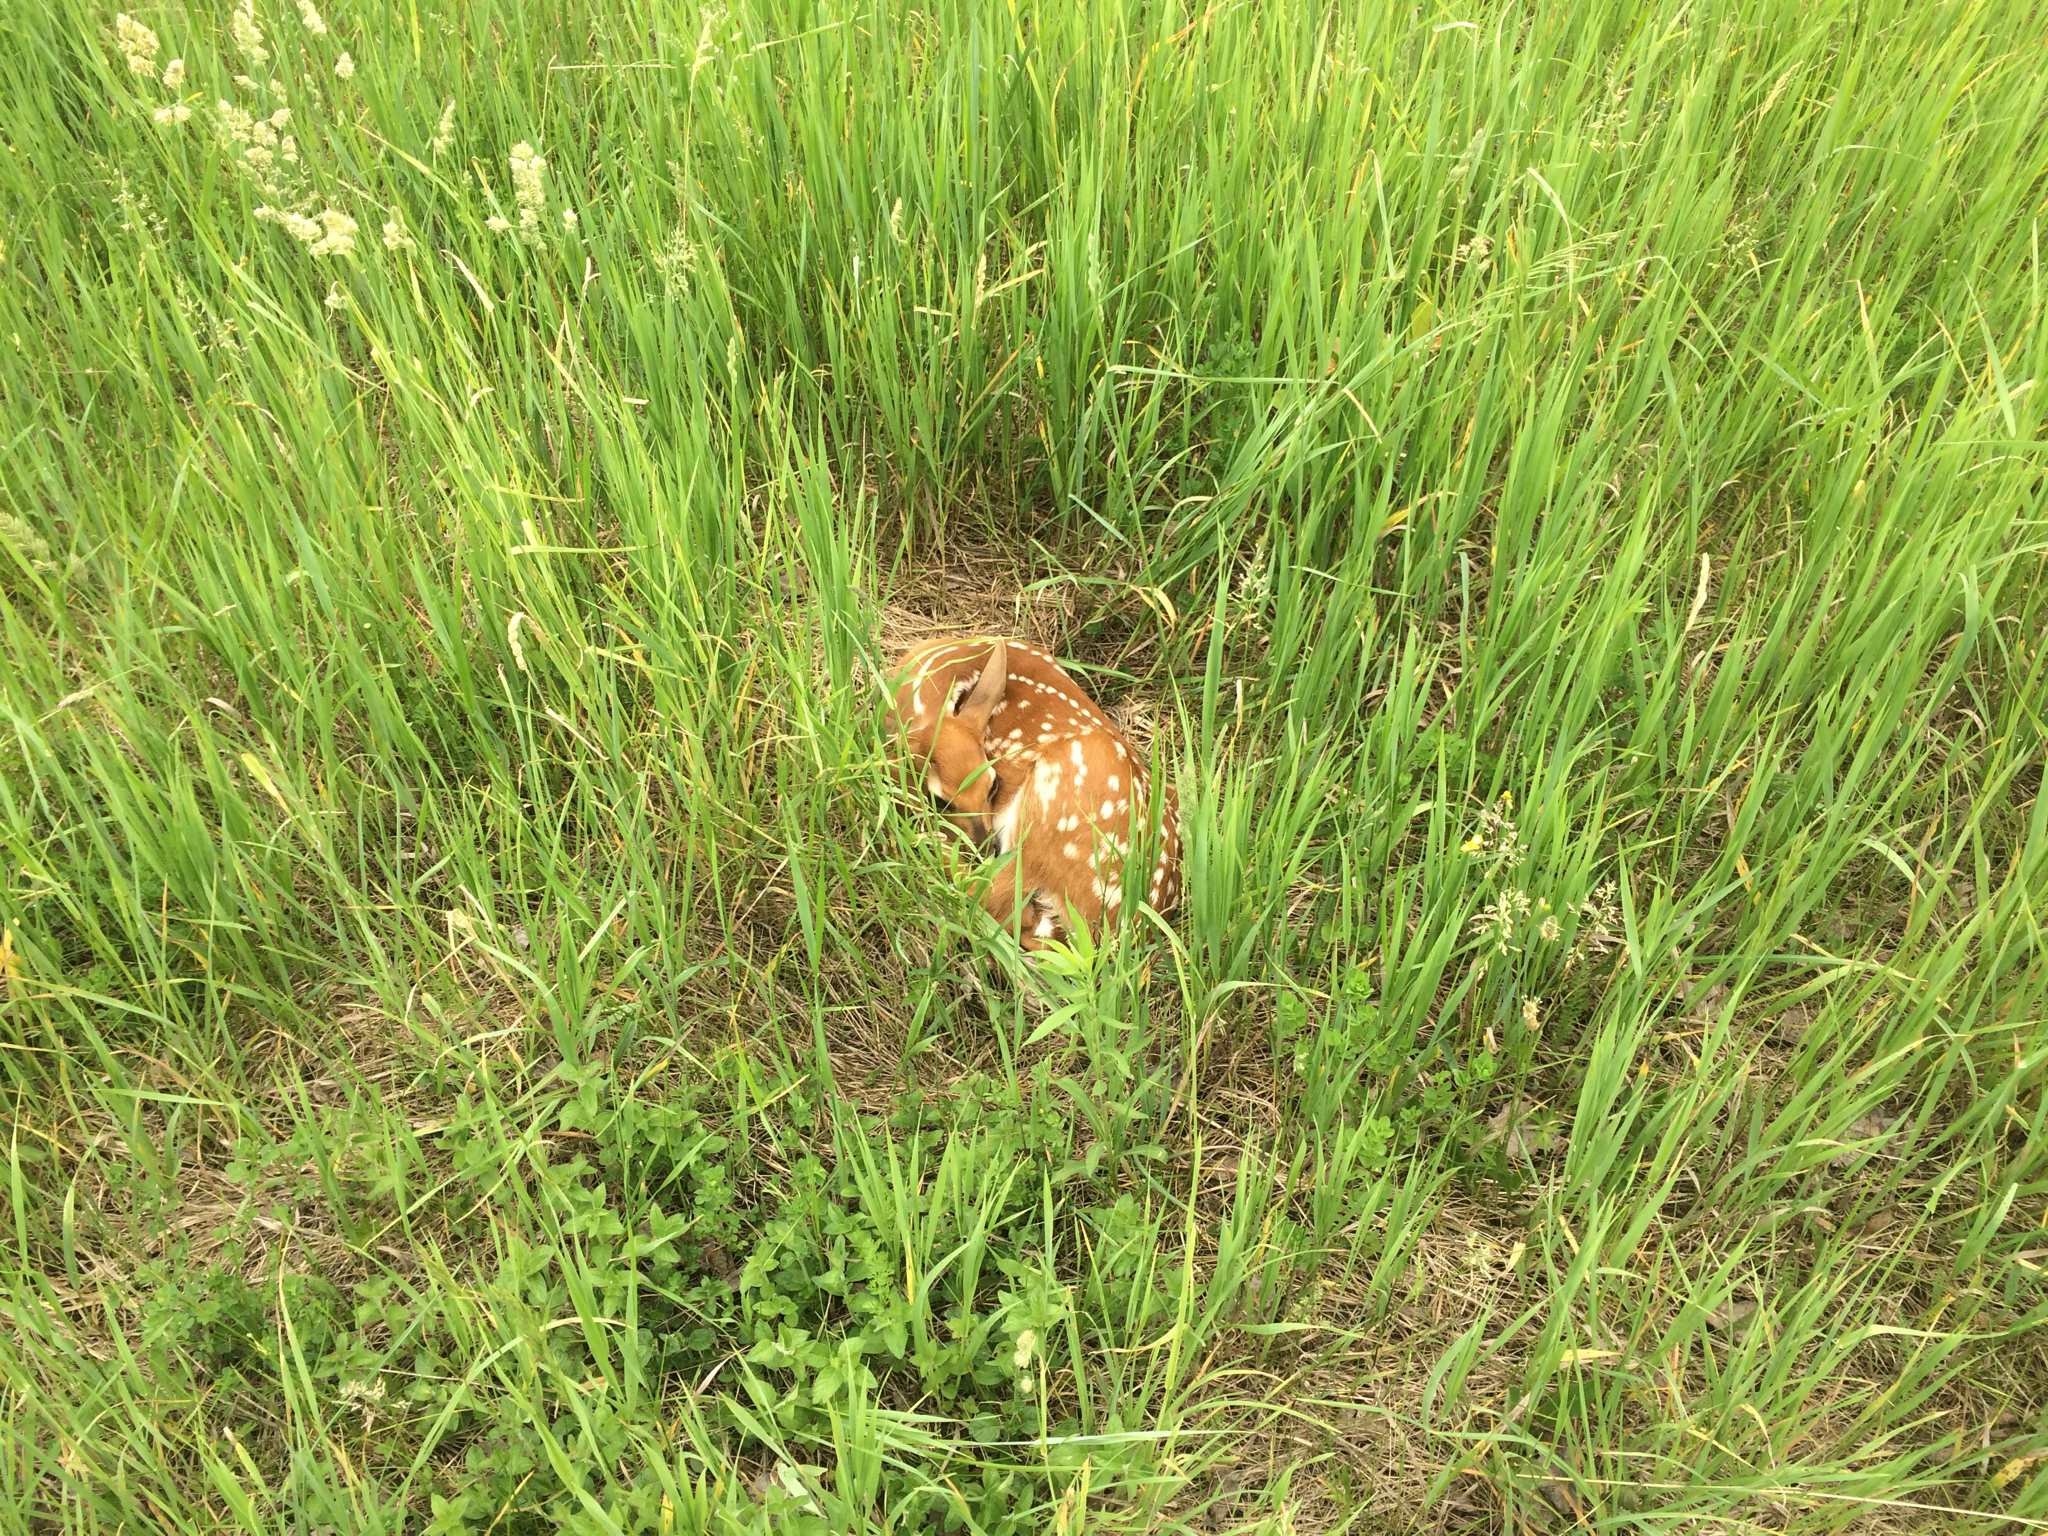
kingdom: Animalia
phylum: Chordata
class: Mammalia
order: Artiodactyla
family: Cervidae
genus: Odocoileus
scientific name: Odocoileus virginianus
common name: White-tailed deer
